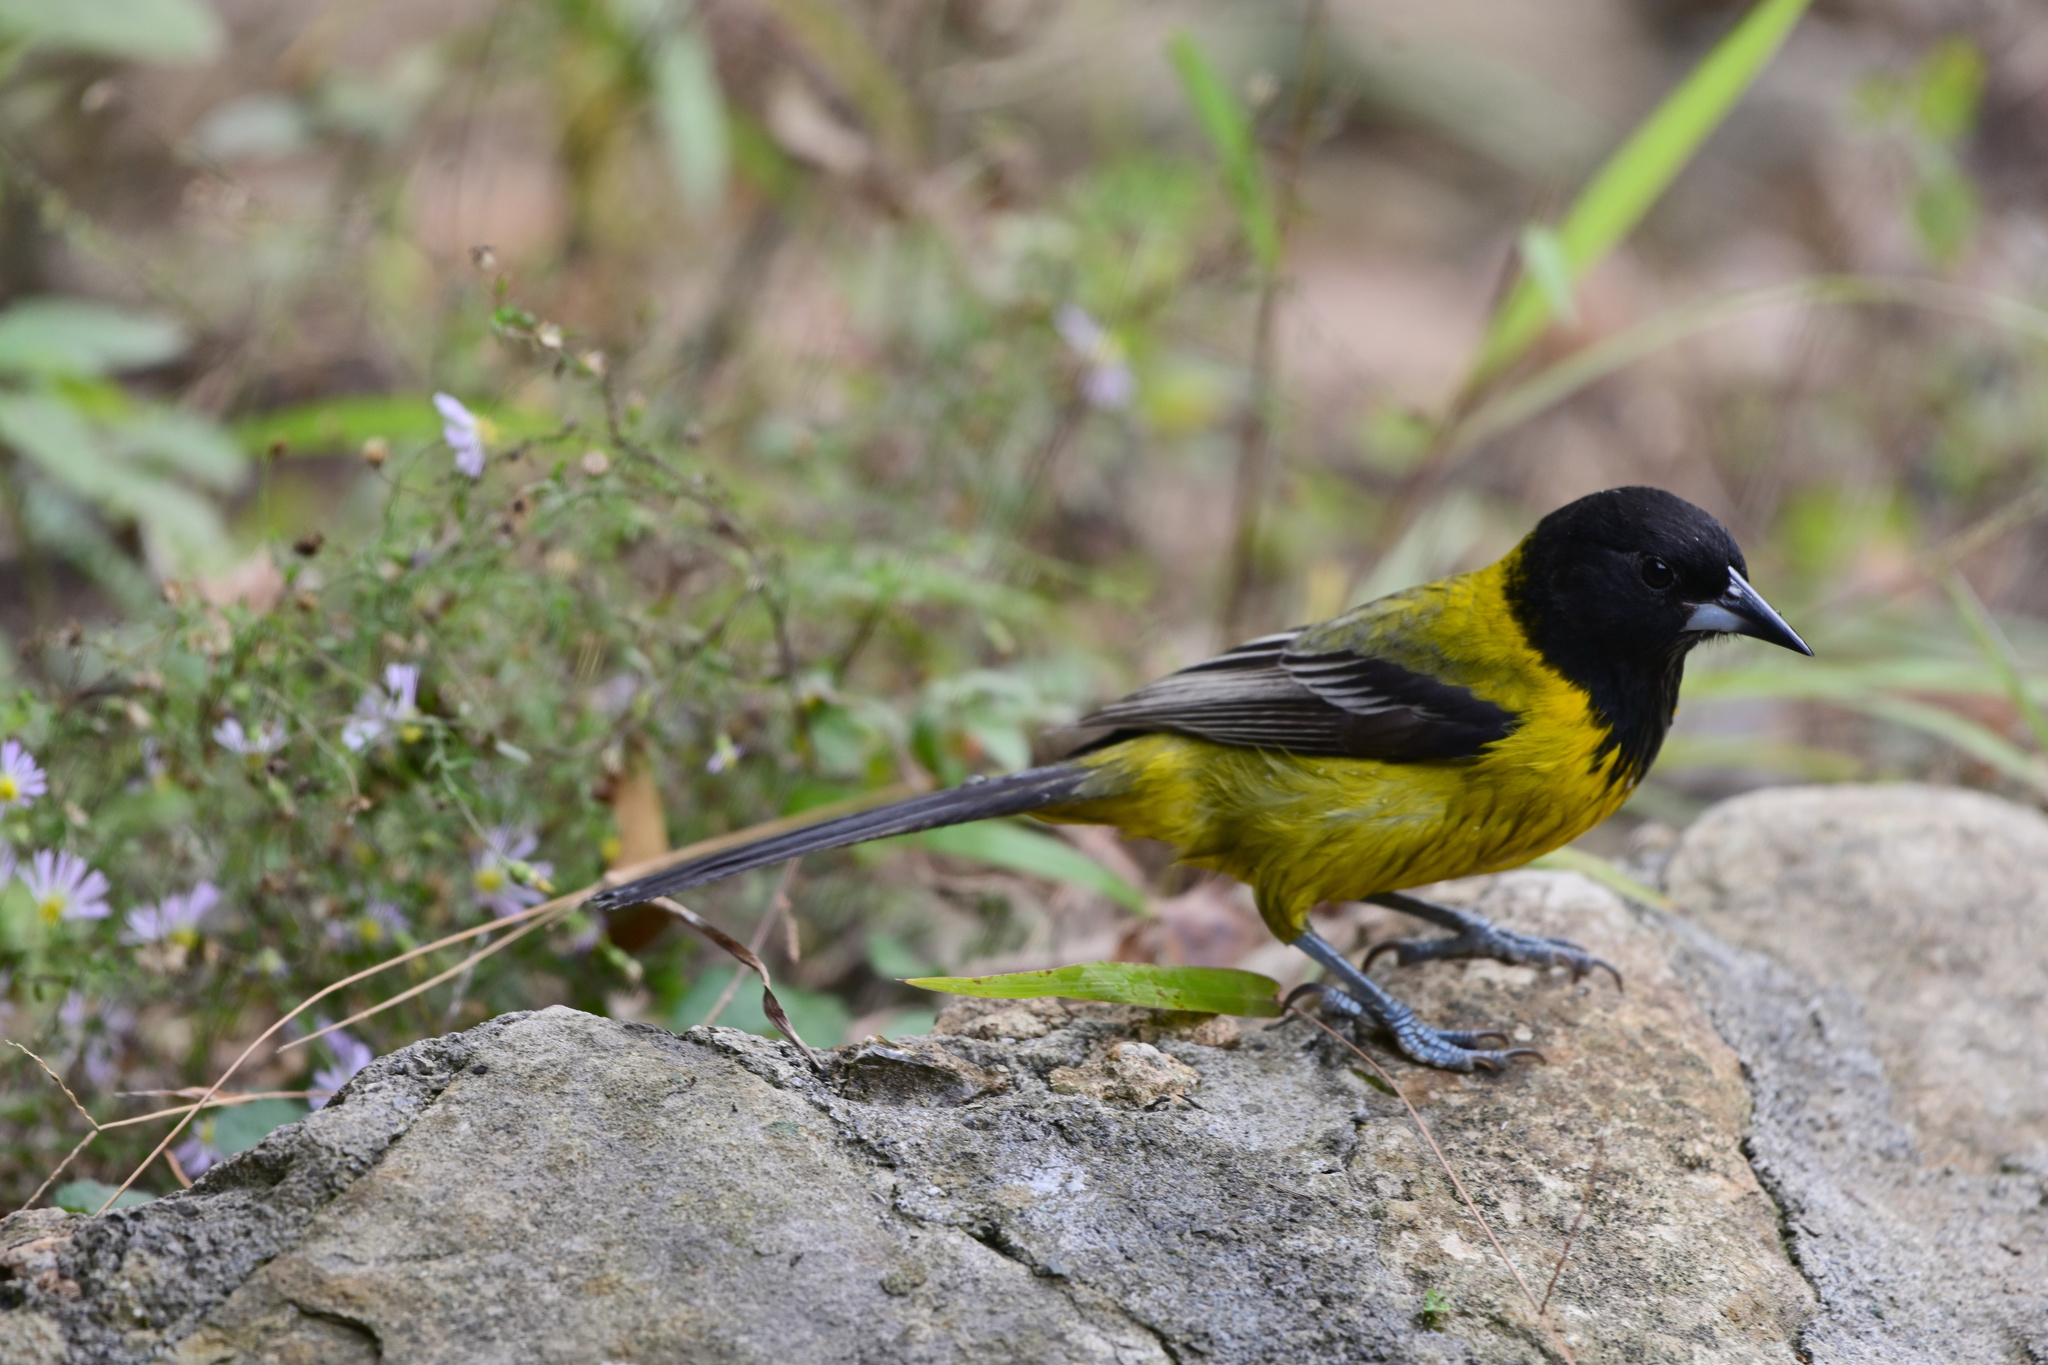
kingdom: Animalia
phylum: Chordata
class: Aves
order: Passeriformes
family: Icteridae
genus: Icterus
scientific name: Icterus graduacauda
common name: Audubon's oriole
